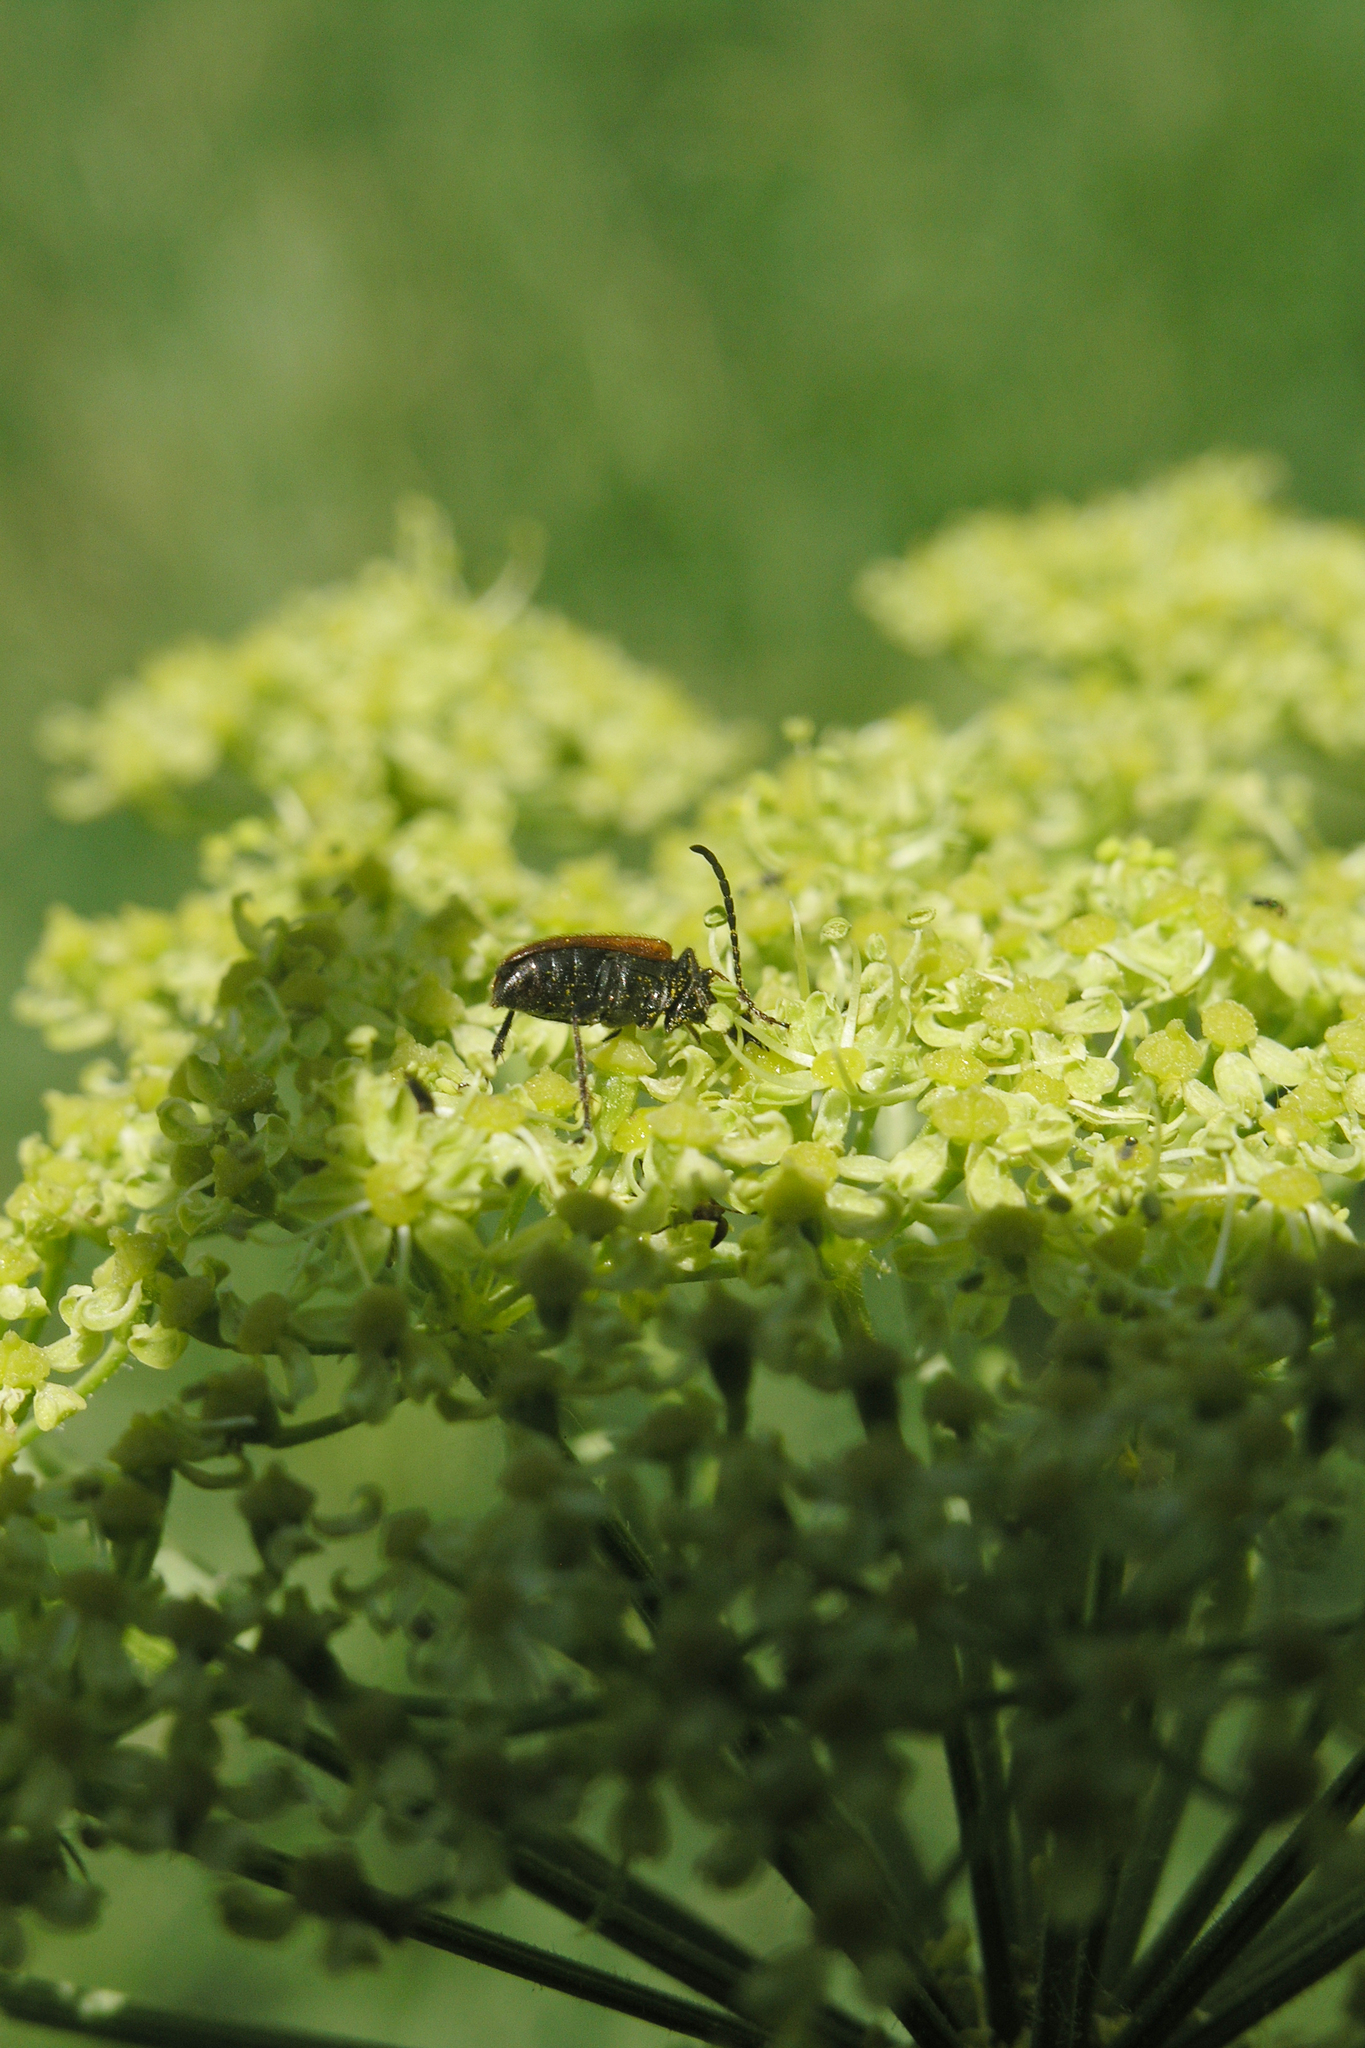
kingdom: Animalia
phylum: Arthropoda
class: Insecta
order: Coleoptera
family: Cerambycidae
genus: Pseudovadonia
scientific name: Pseudovadonia livida
